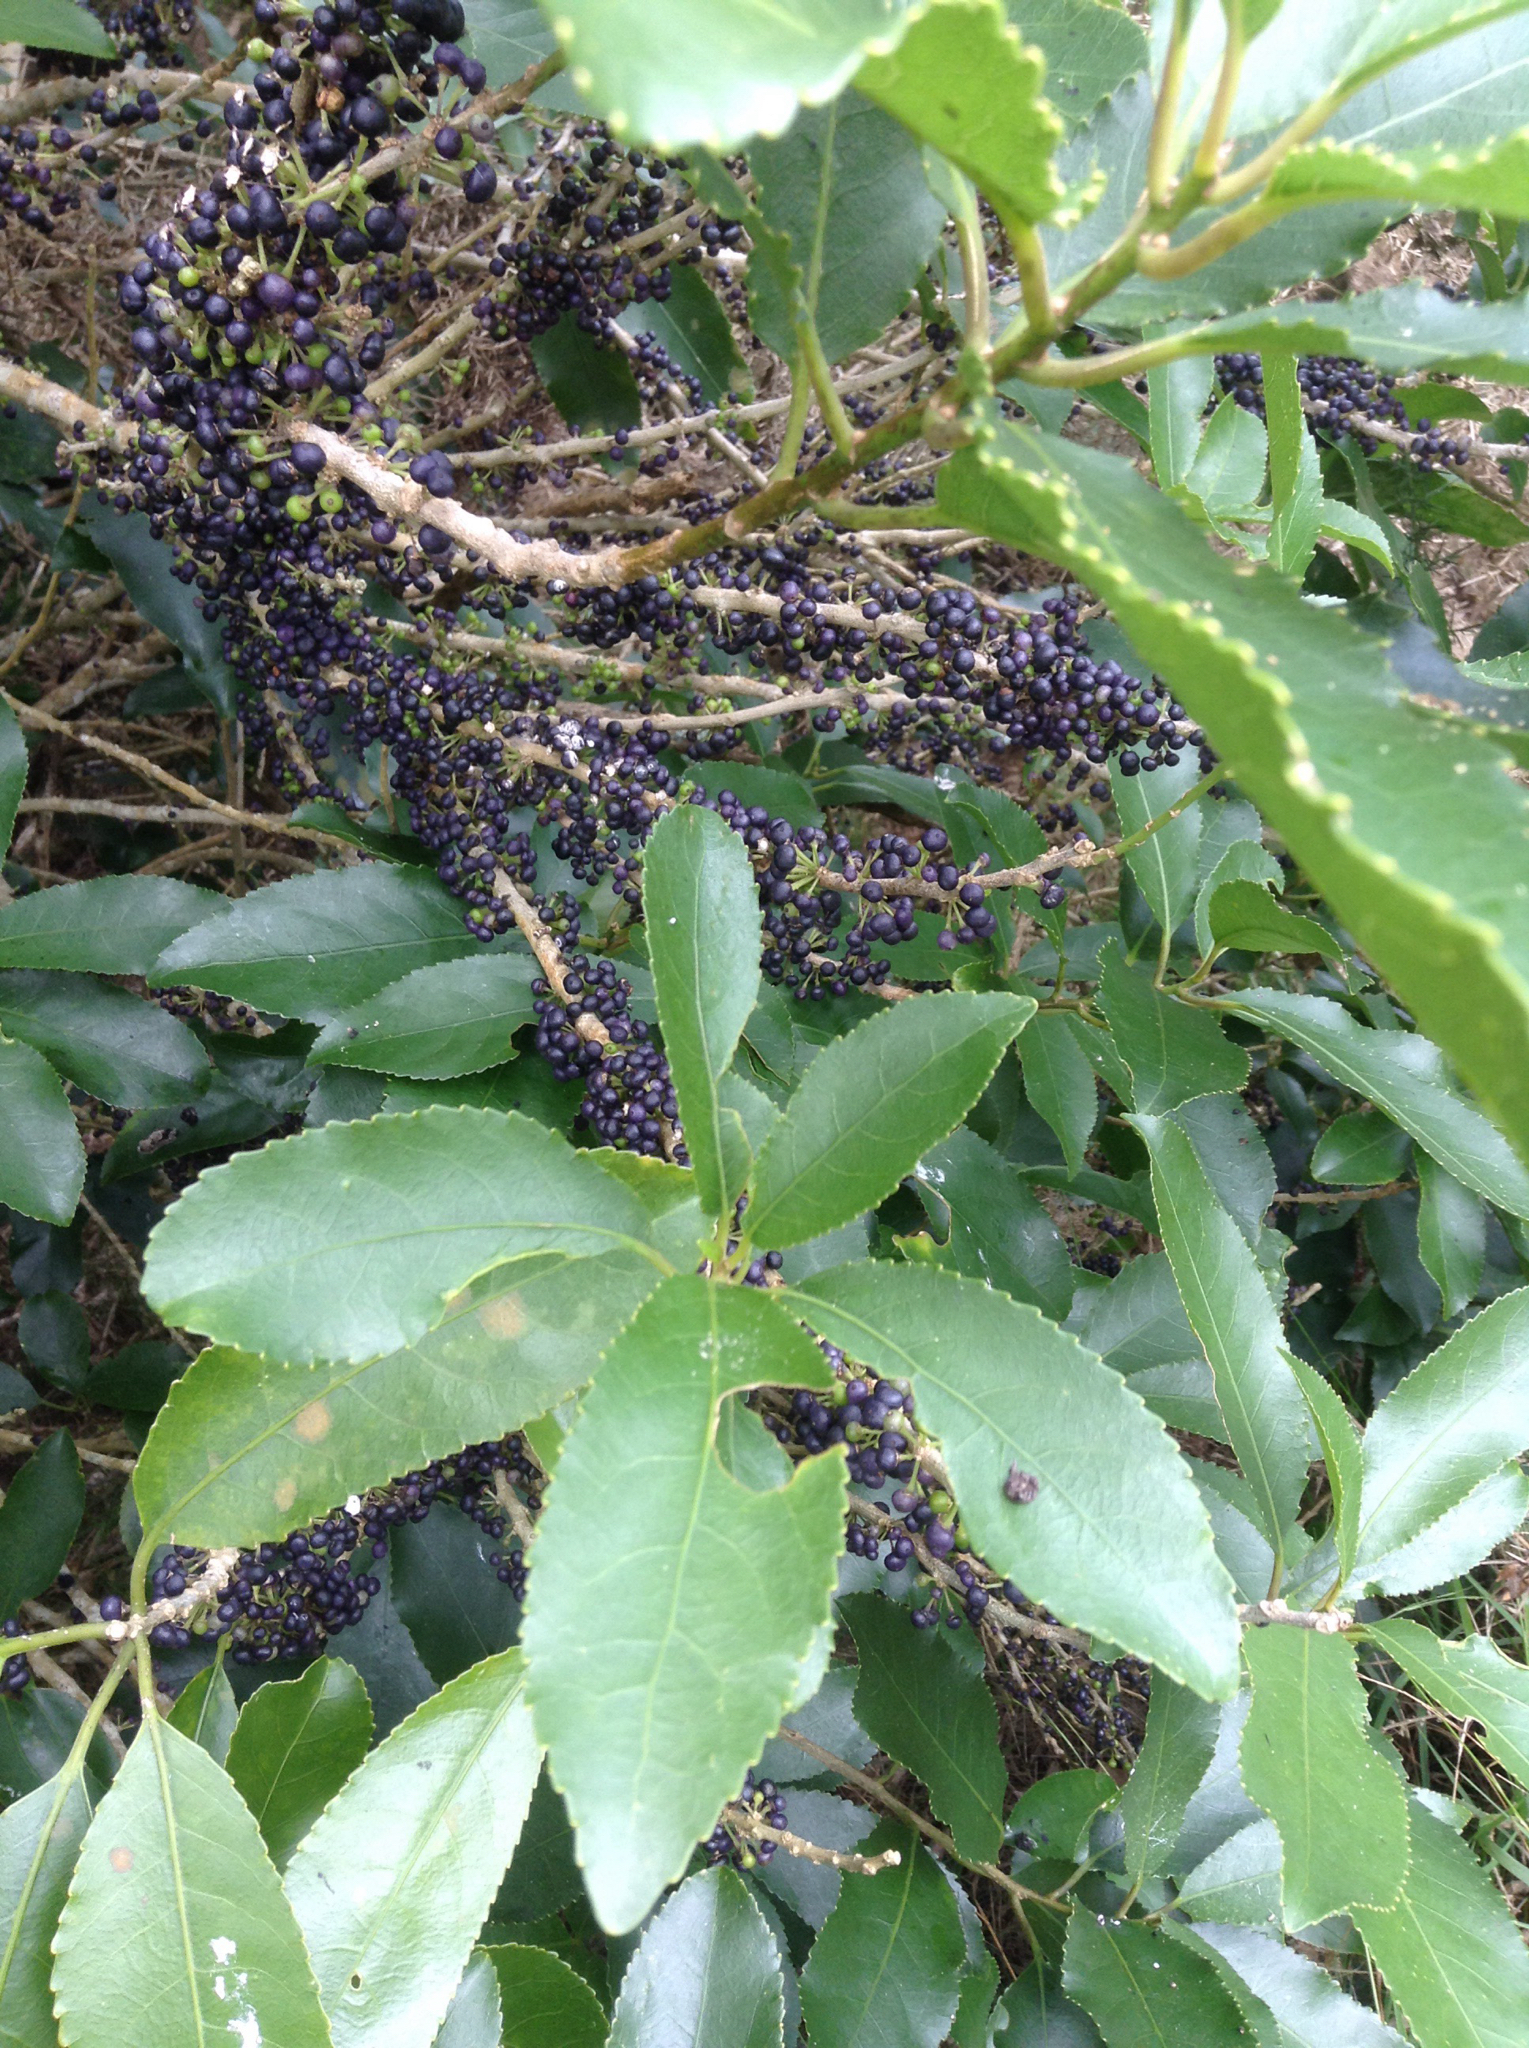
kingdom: Plantae
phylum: Tracheophyta
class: Magnoliopsida
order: Malpighiales
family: Violaceae
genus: Melicytus
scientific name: Melicytus ramiflorus
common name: Mahoe
